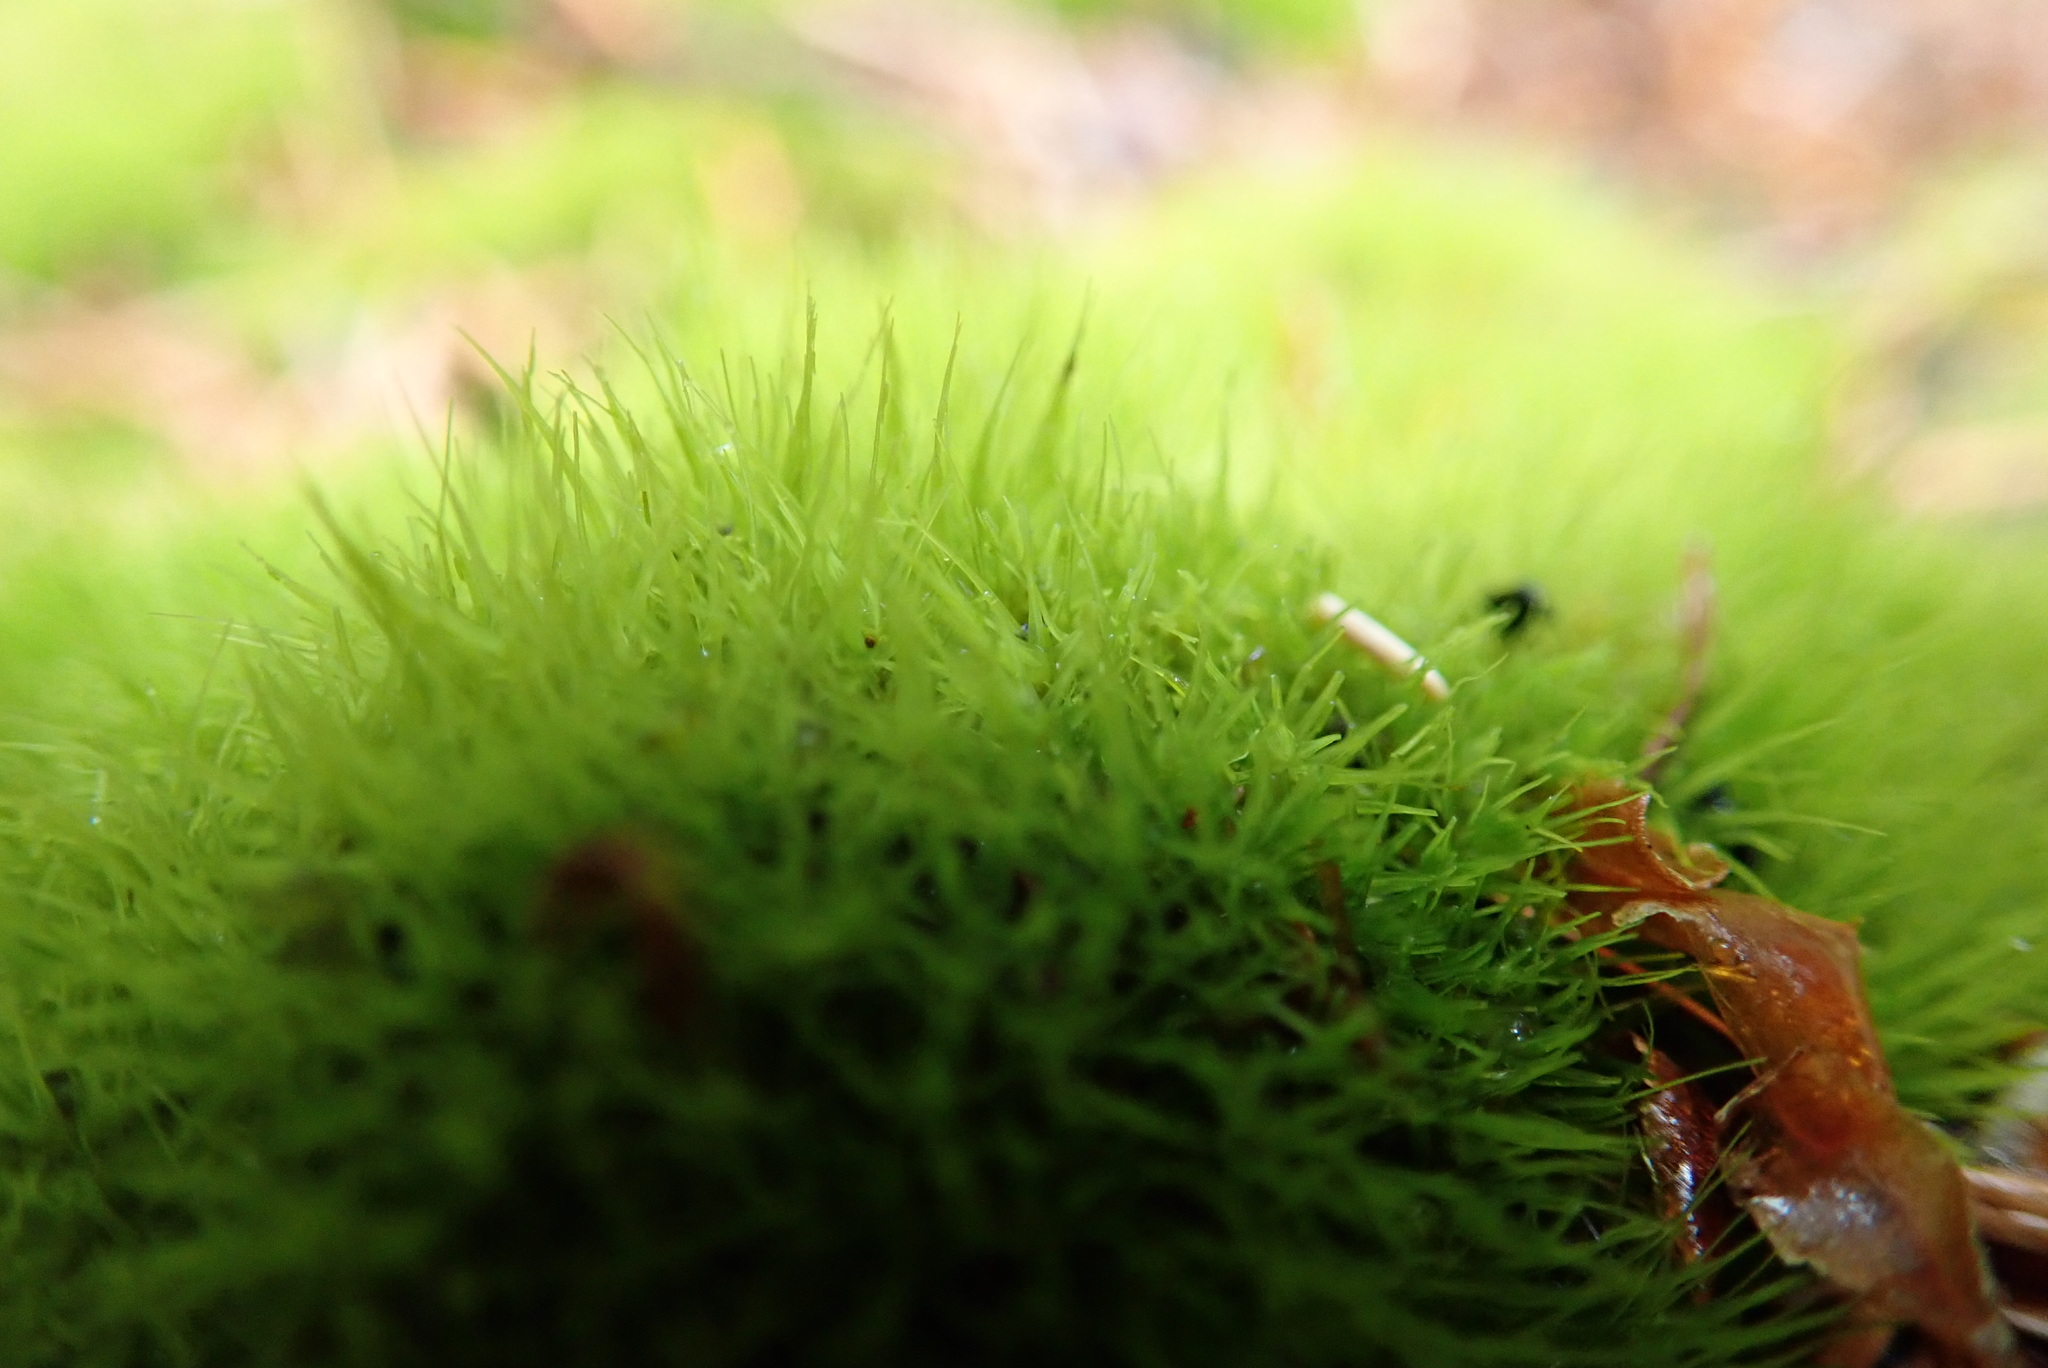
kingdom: Plantae
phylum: Bryophyta
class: Bryopsida
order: Dicranales
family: Dicranaceae
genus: Orthodicranum
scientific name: Orthodicranum tauricum
